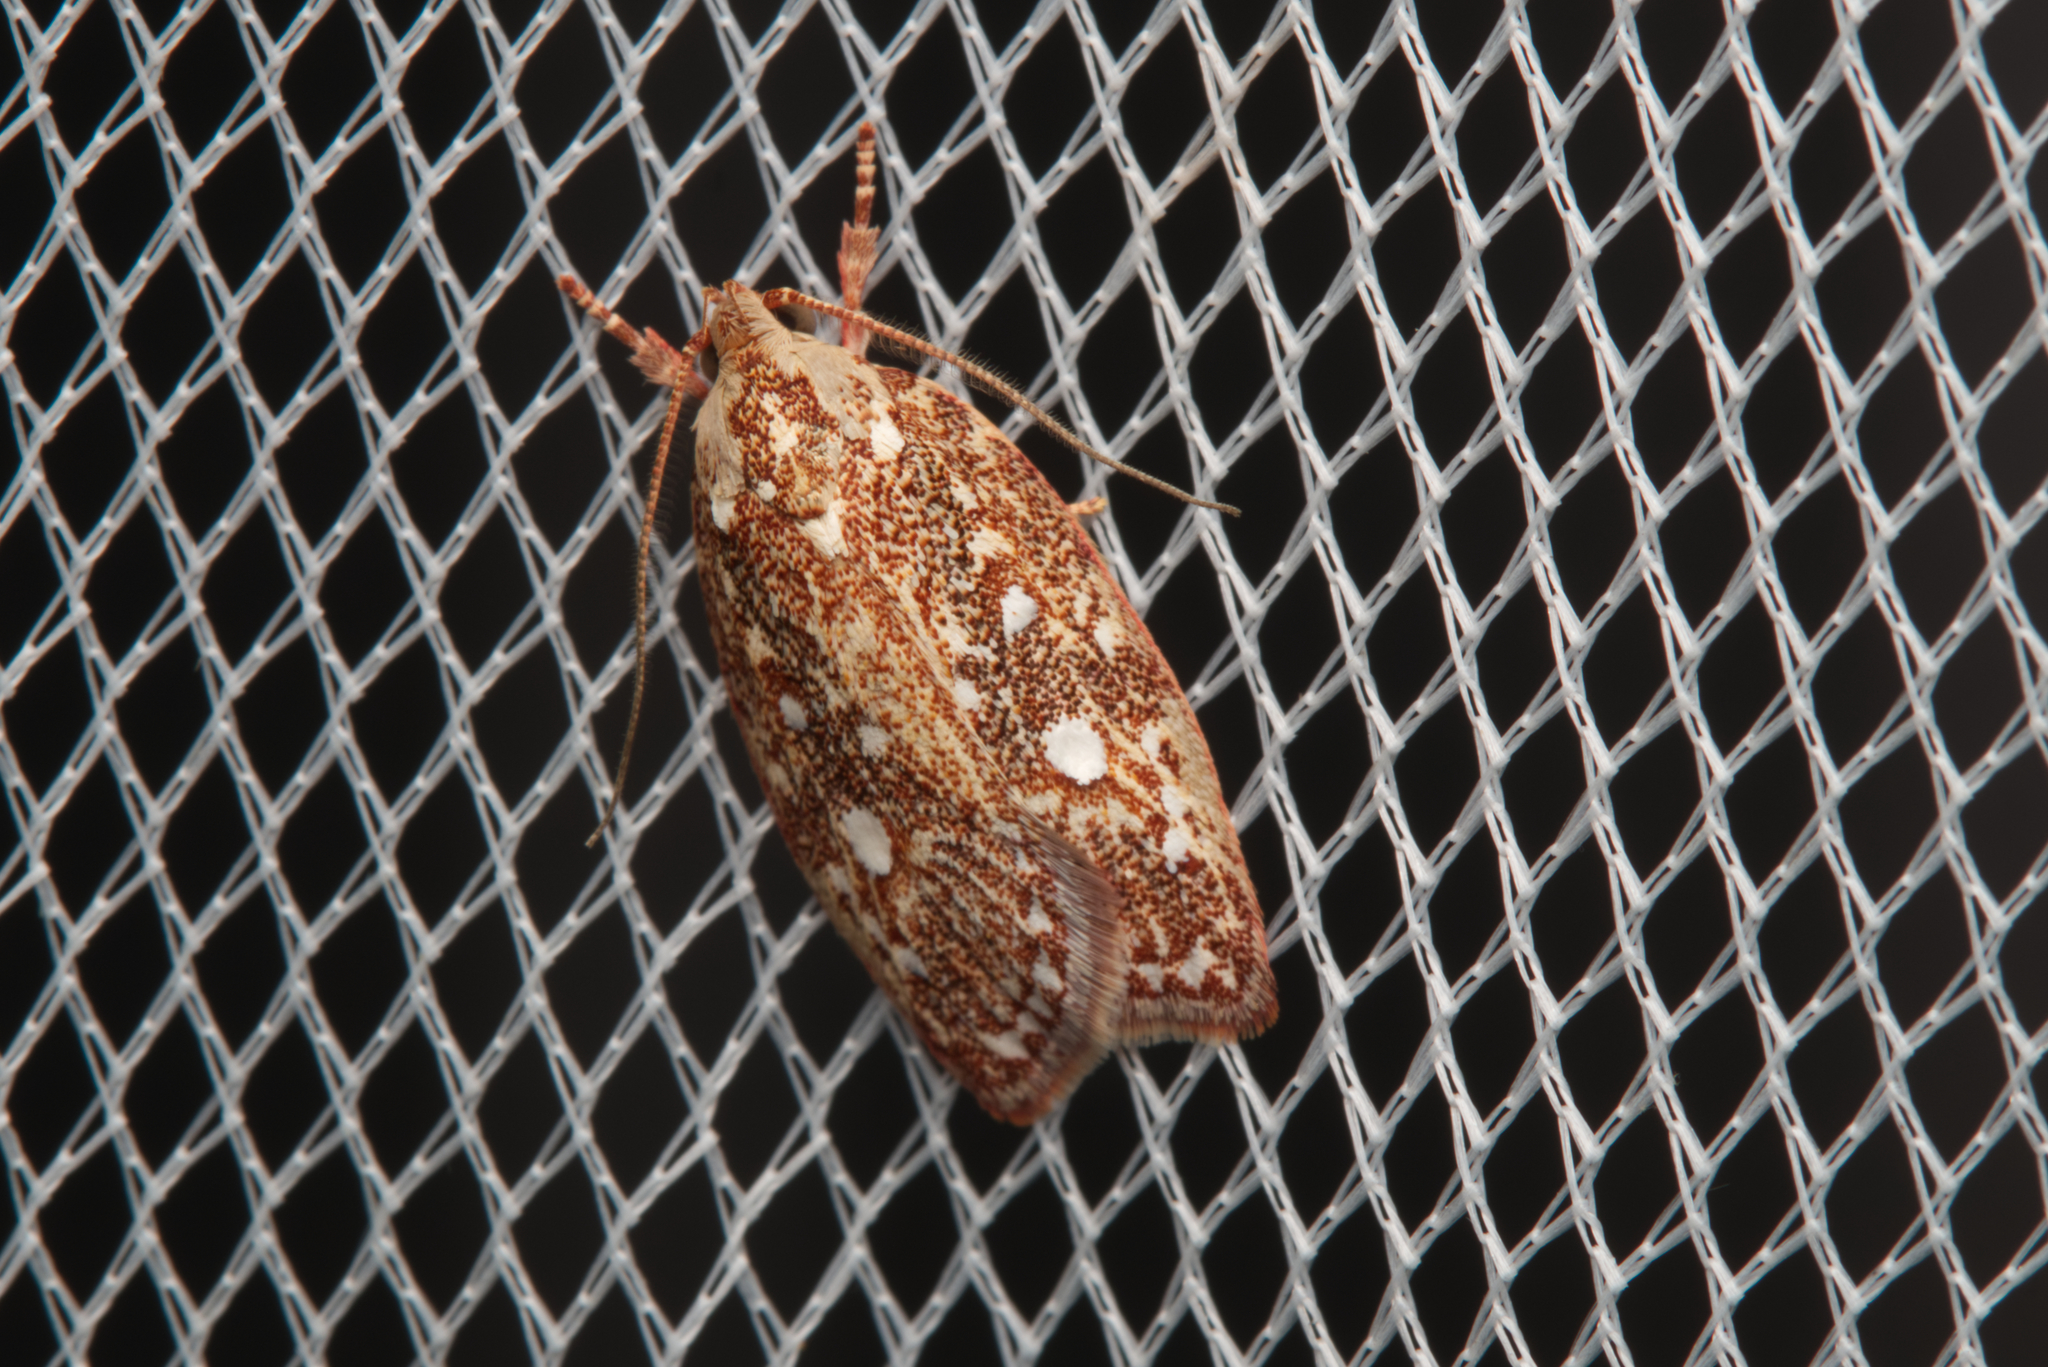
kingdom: Animalia
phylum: Arthropoda
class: Insecta
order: Lepidoptera
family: Oecophoridae
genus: Euchaetis
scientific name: Euchaetis metallota
